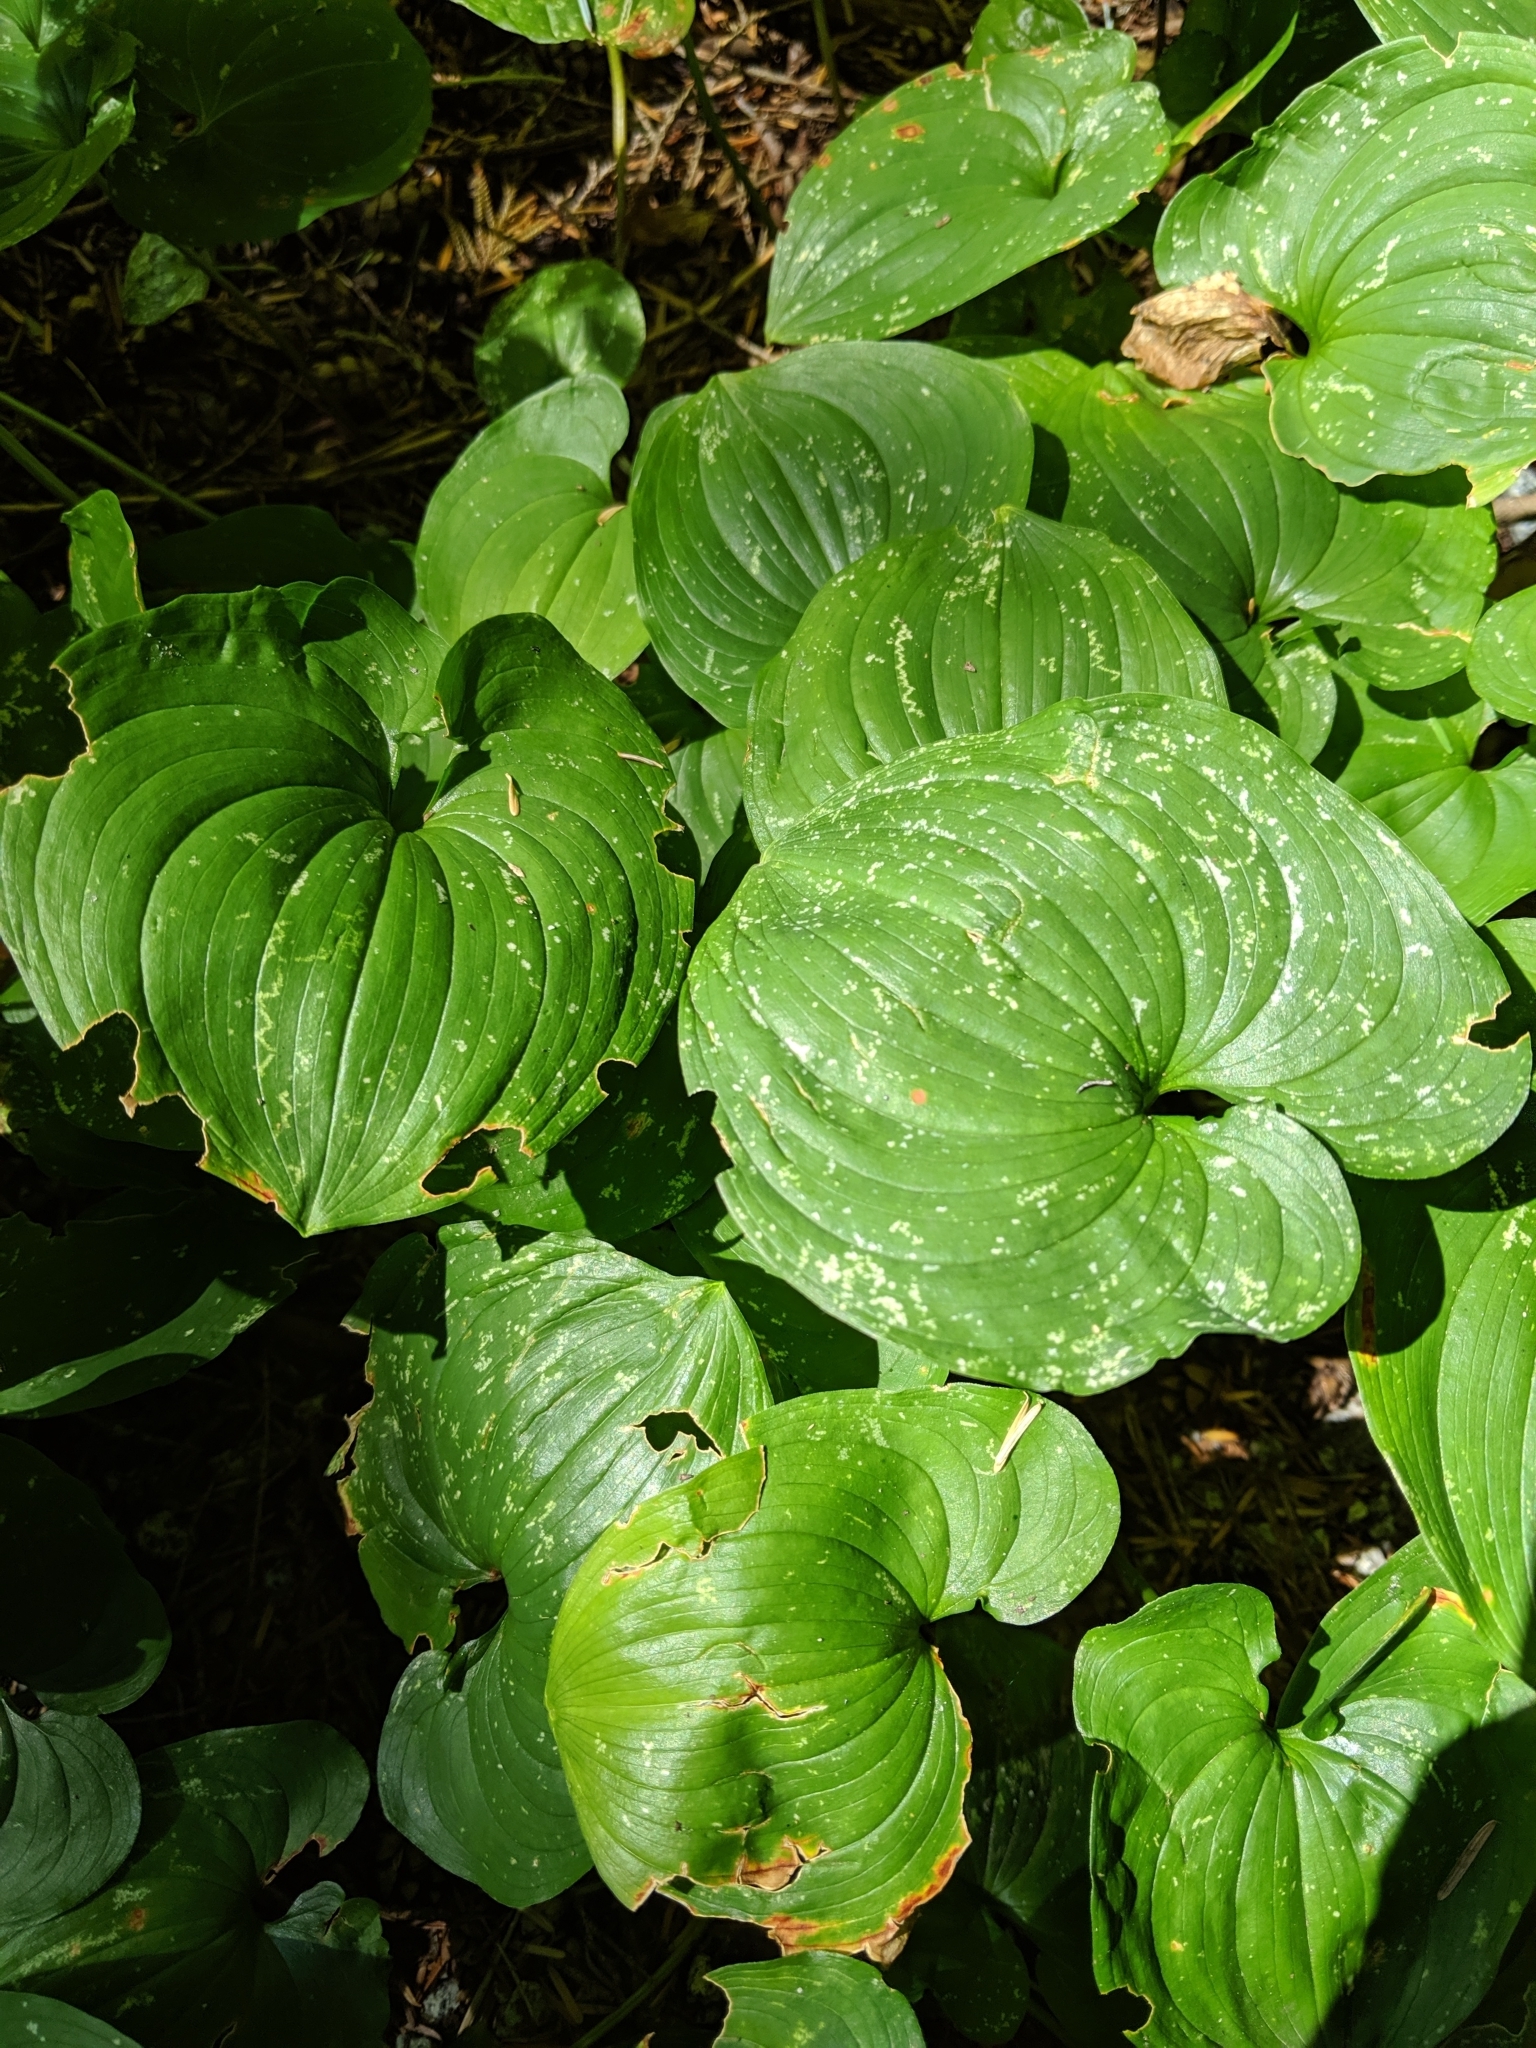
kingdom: Plantae
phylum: Tracheophyta
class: Liliopsida
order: Asparagales
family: Asparagaceae
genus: Maianthemum
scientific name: Maianthemum dilatatum
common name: False lily-of-the-valley
